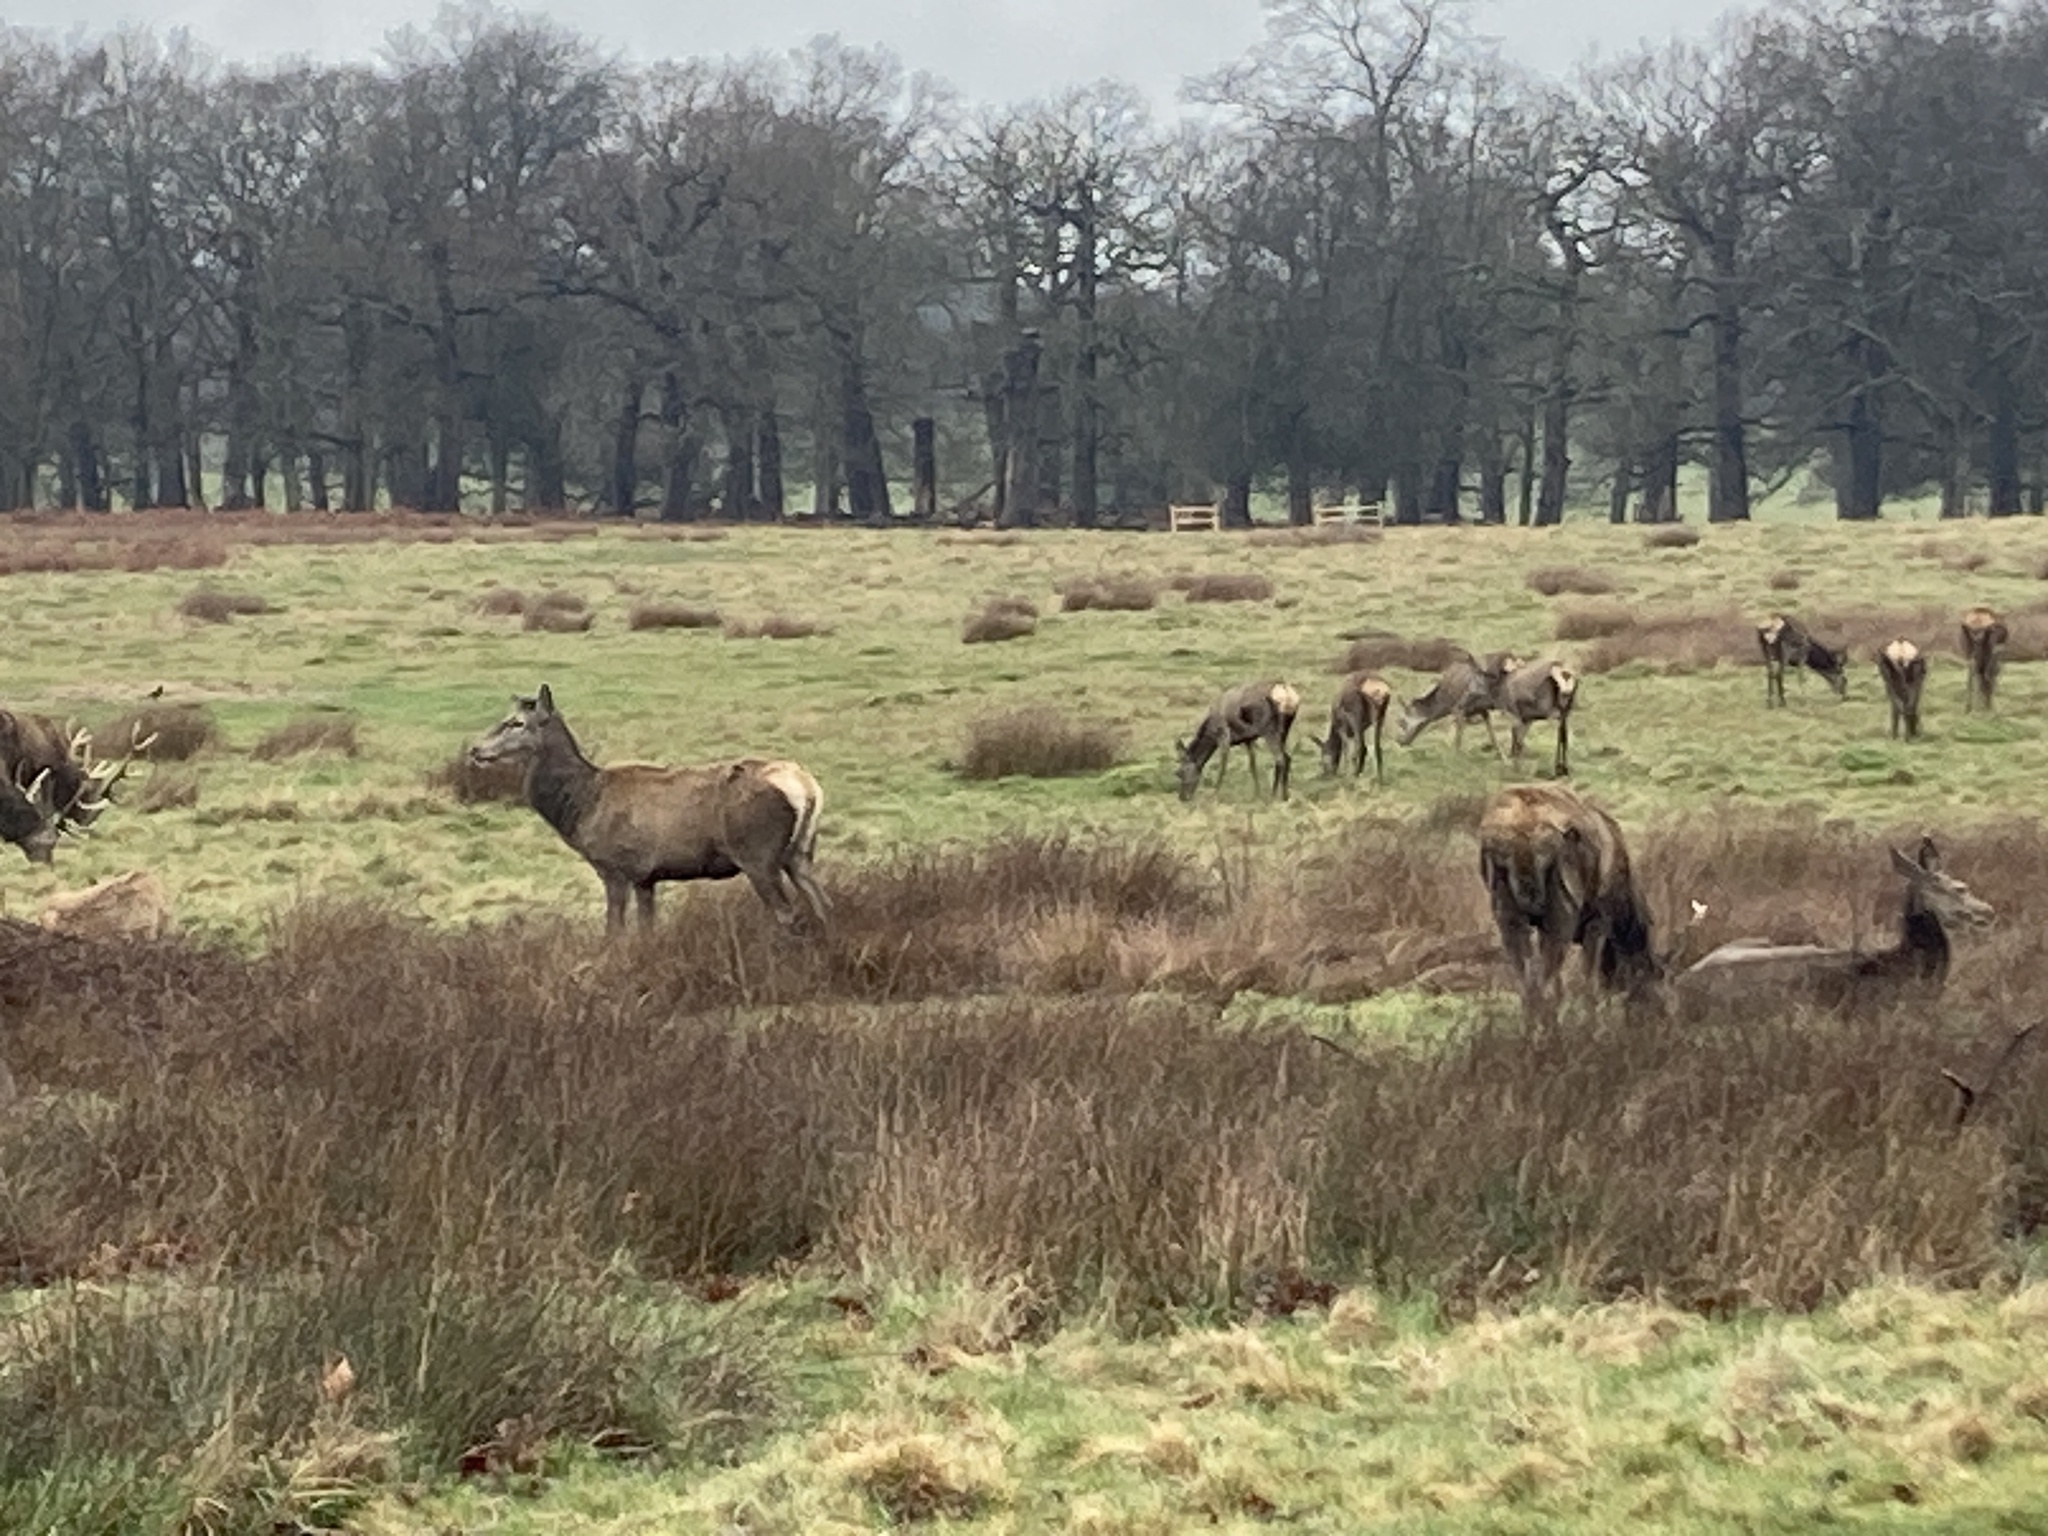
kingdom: Animalia
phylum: Chordata
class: Mammalia
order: Artiodactyla
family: Cervidae
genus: Cervus
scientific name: Cervus elaphus
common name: Red deer
